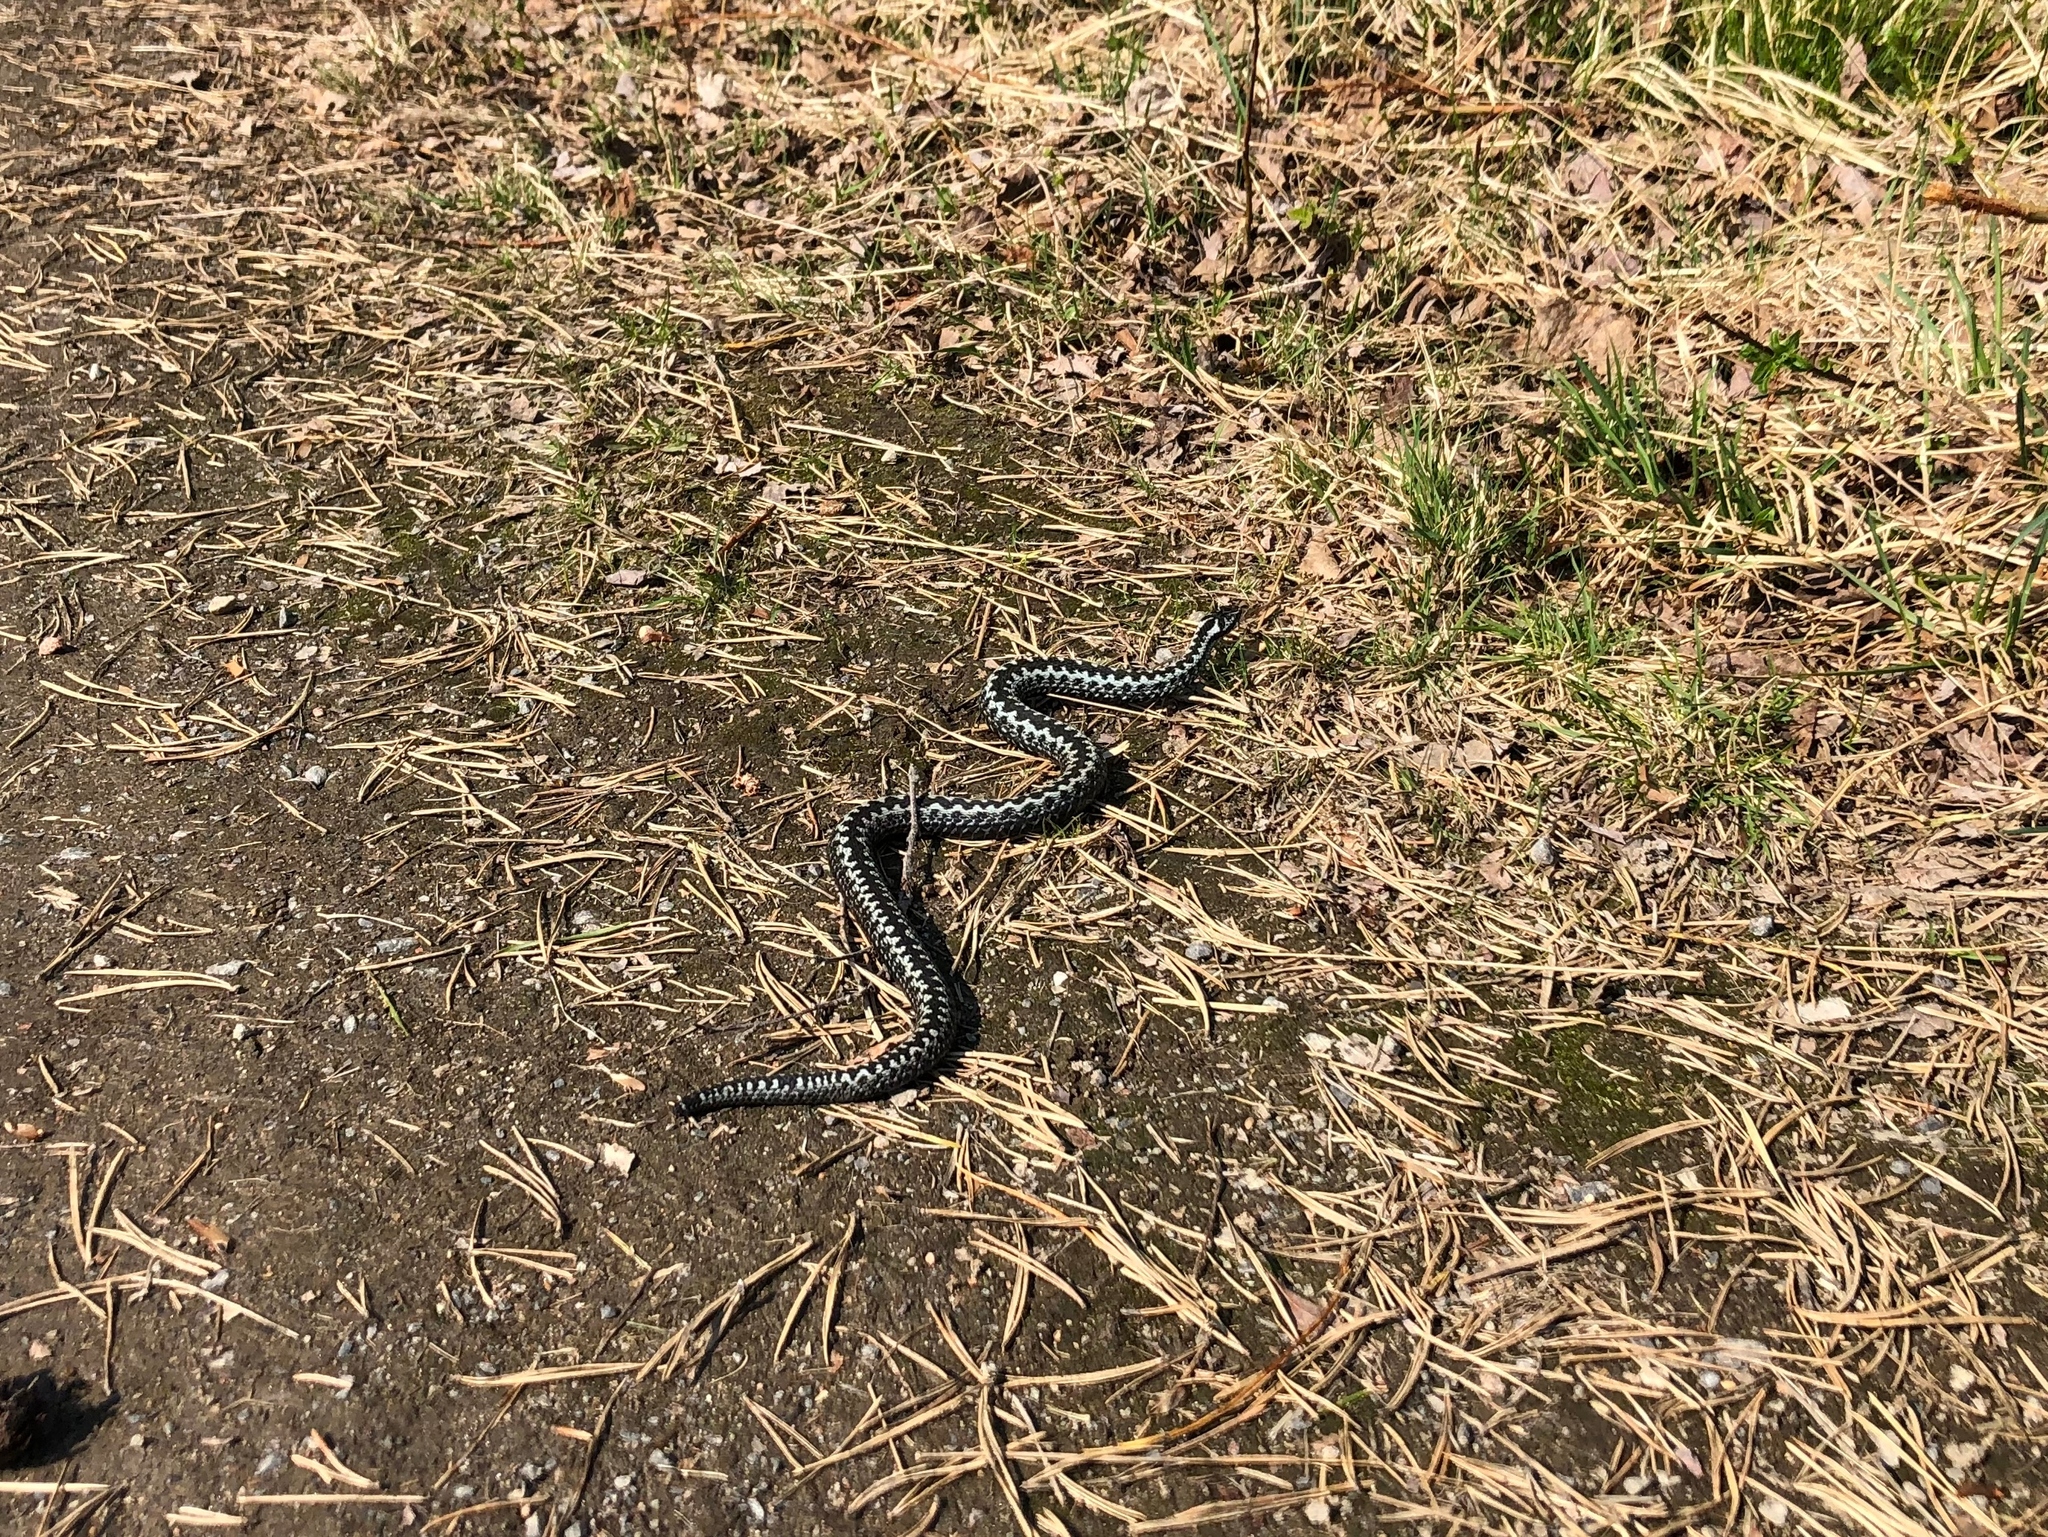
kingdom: Animalia
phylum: Chordata
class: Squamata
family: Viperidae
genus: Vipera
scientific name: Vipera berus
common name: Adder
